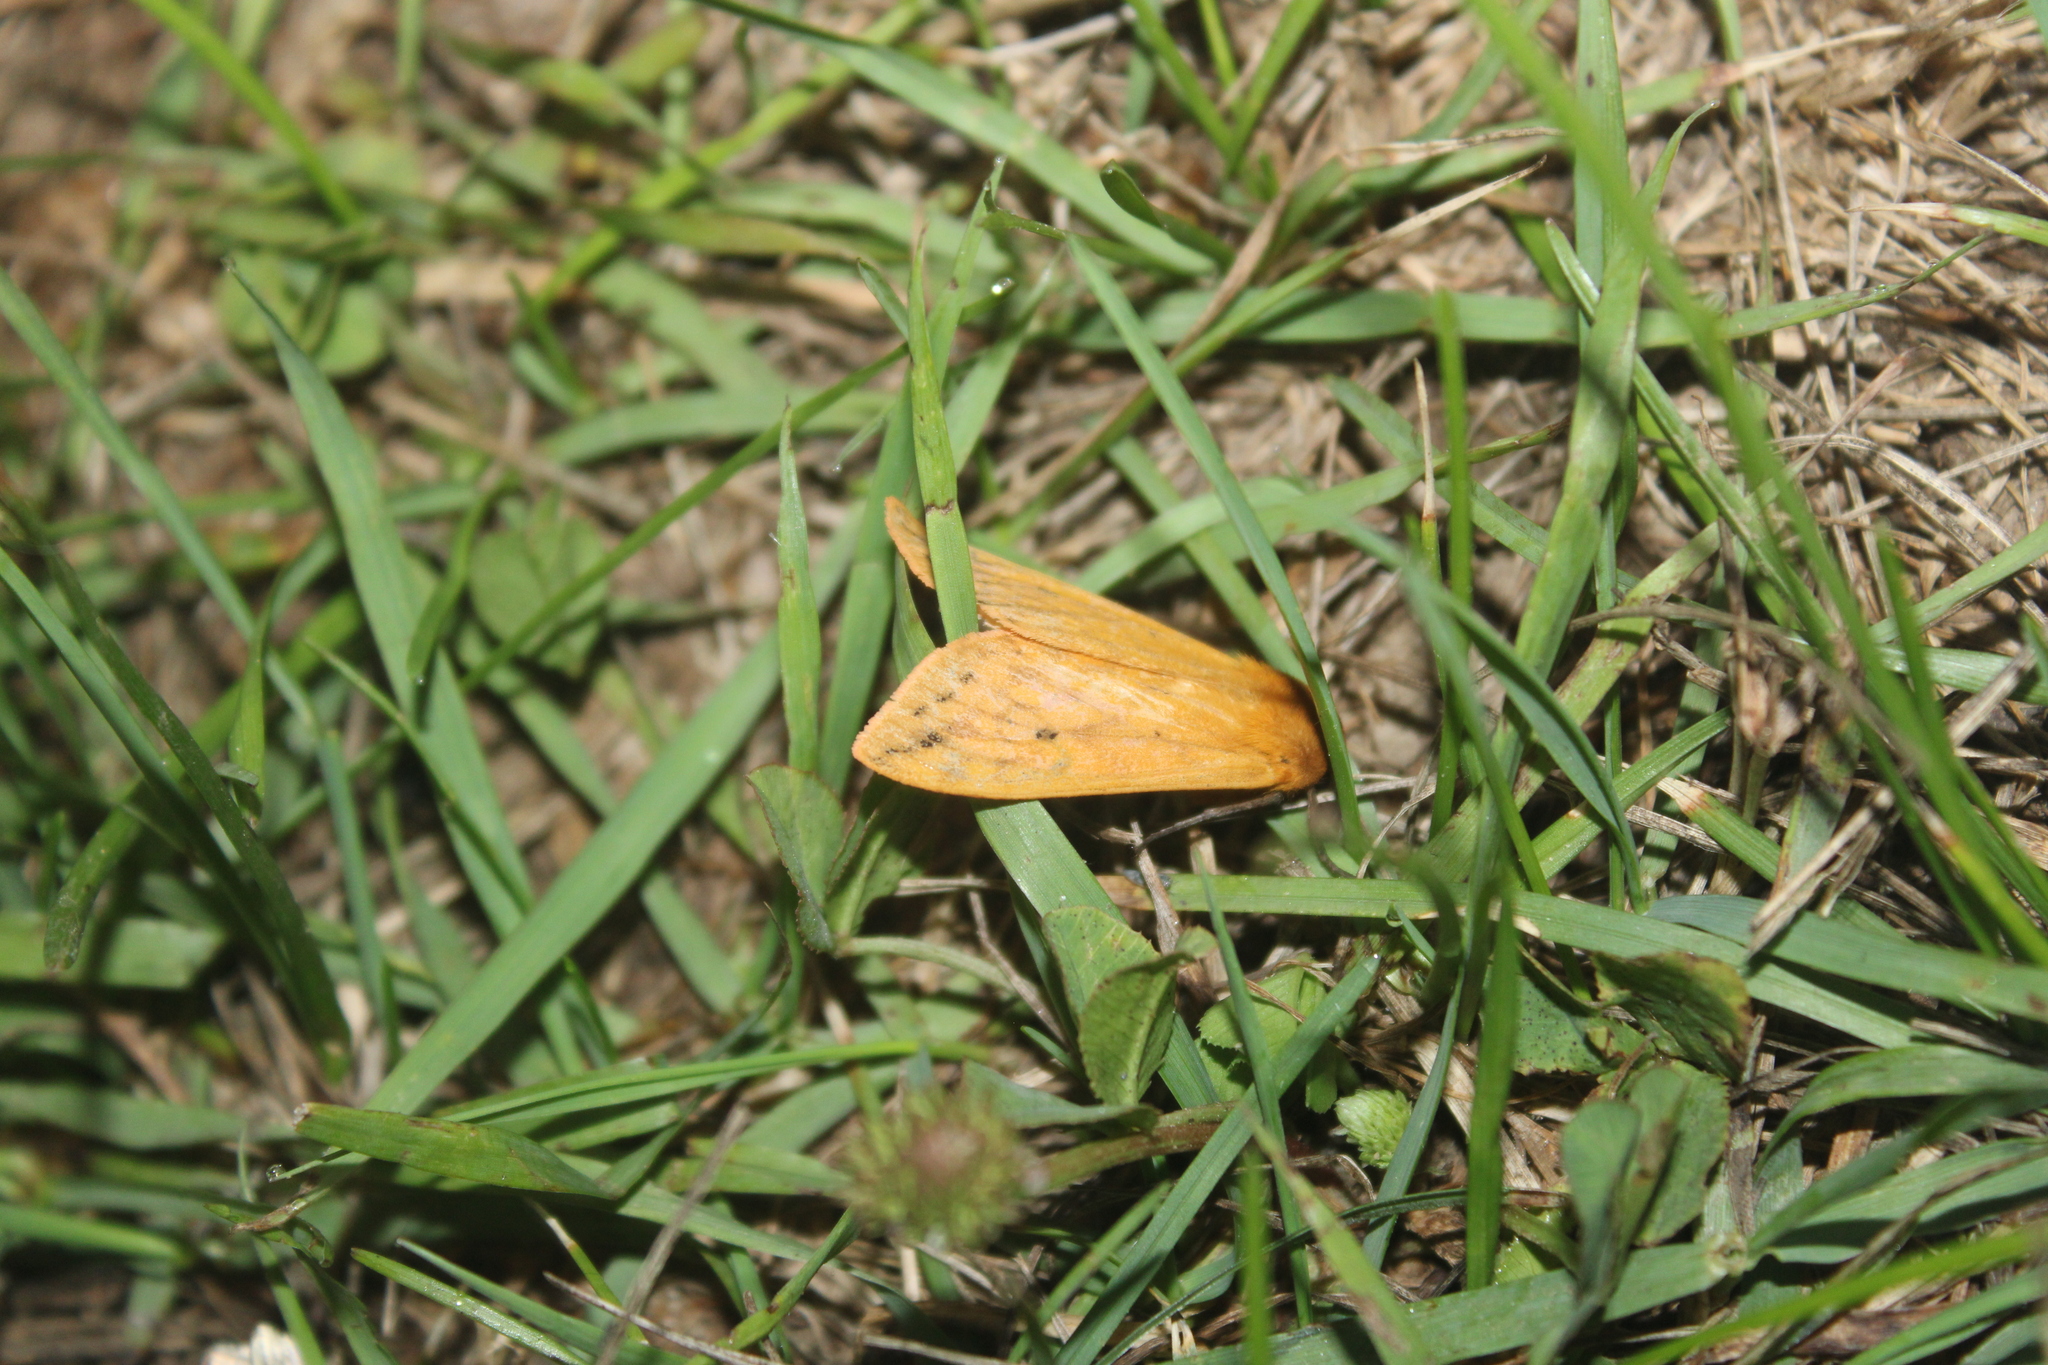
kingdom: Animalia
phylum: Arthropoda
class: Insecta
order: Lepidoptera
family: Erebidae
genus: Pyrrharctia
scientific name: Pyrrharctia isabella
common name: Isabella tiger moth
